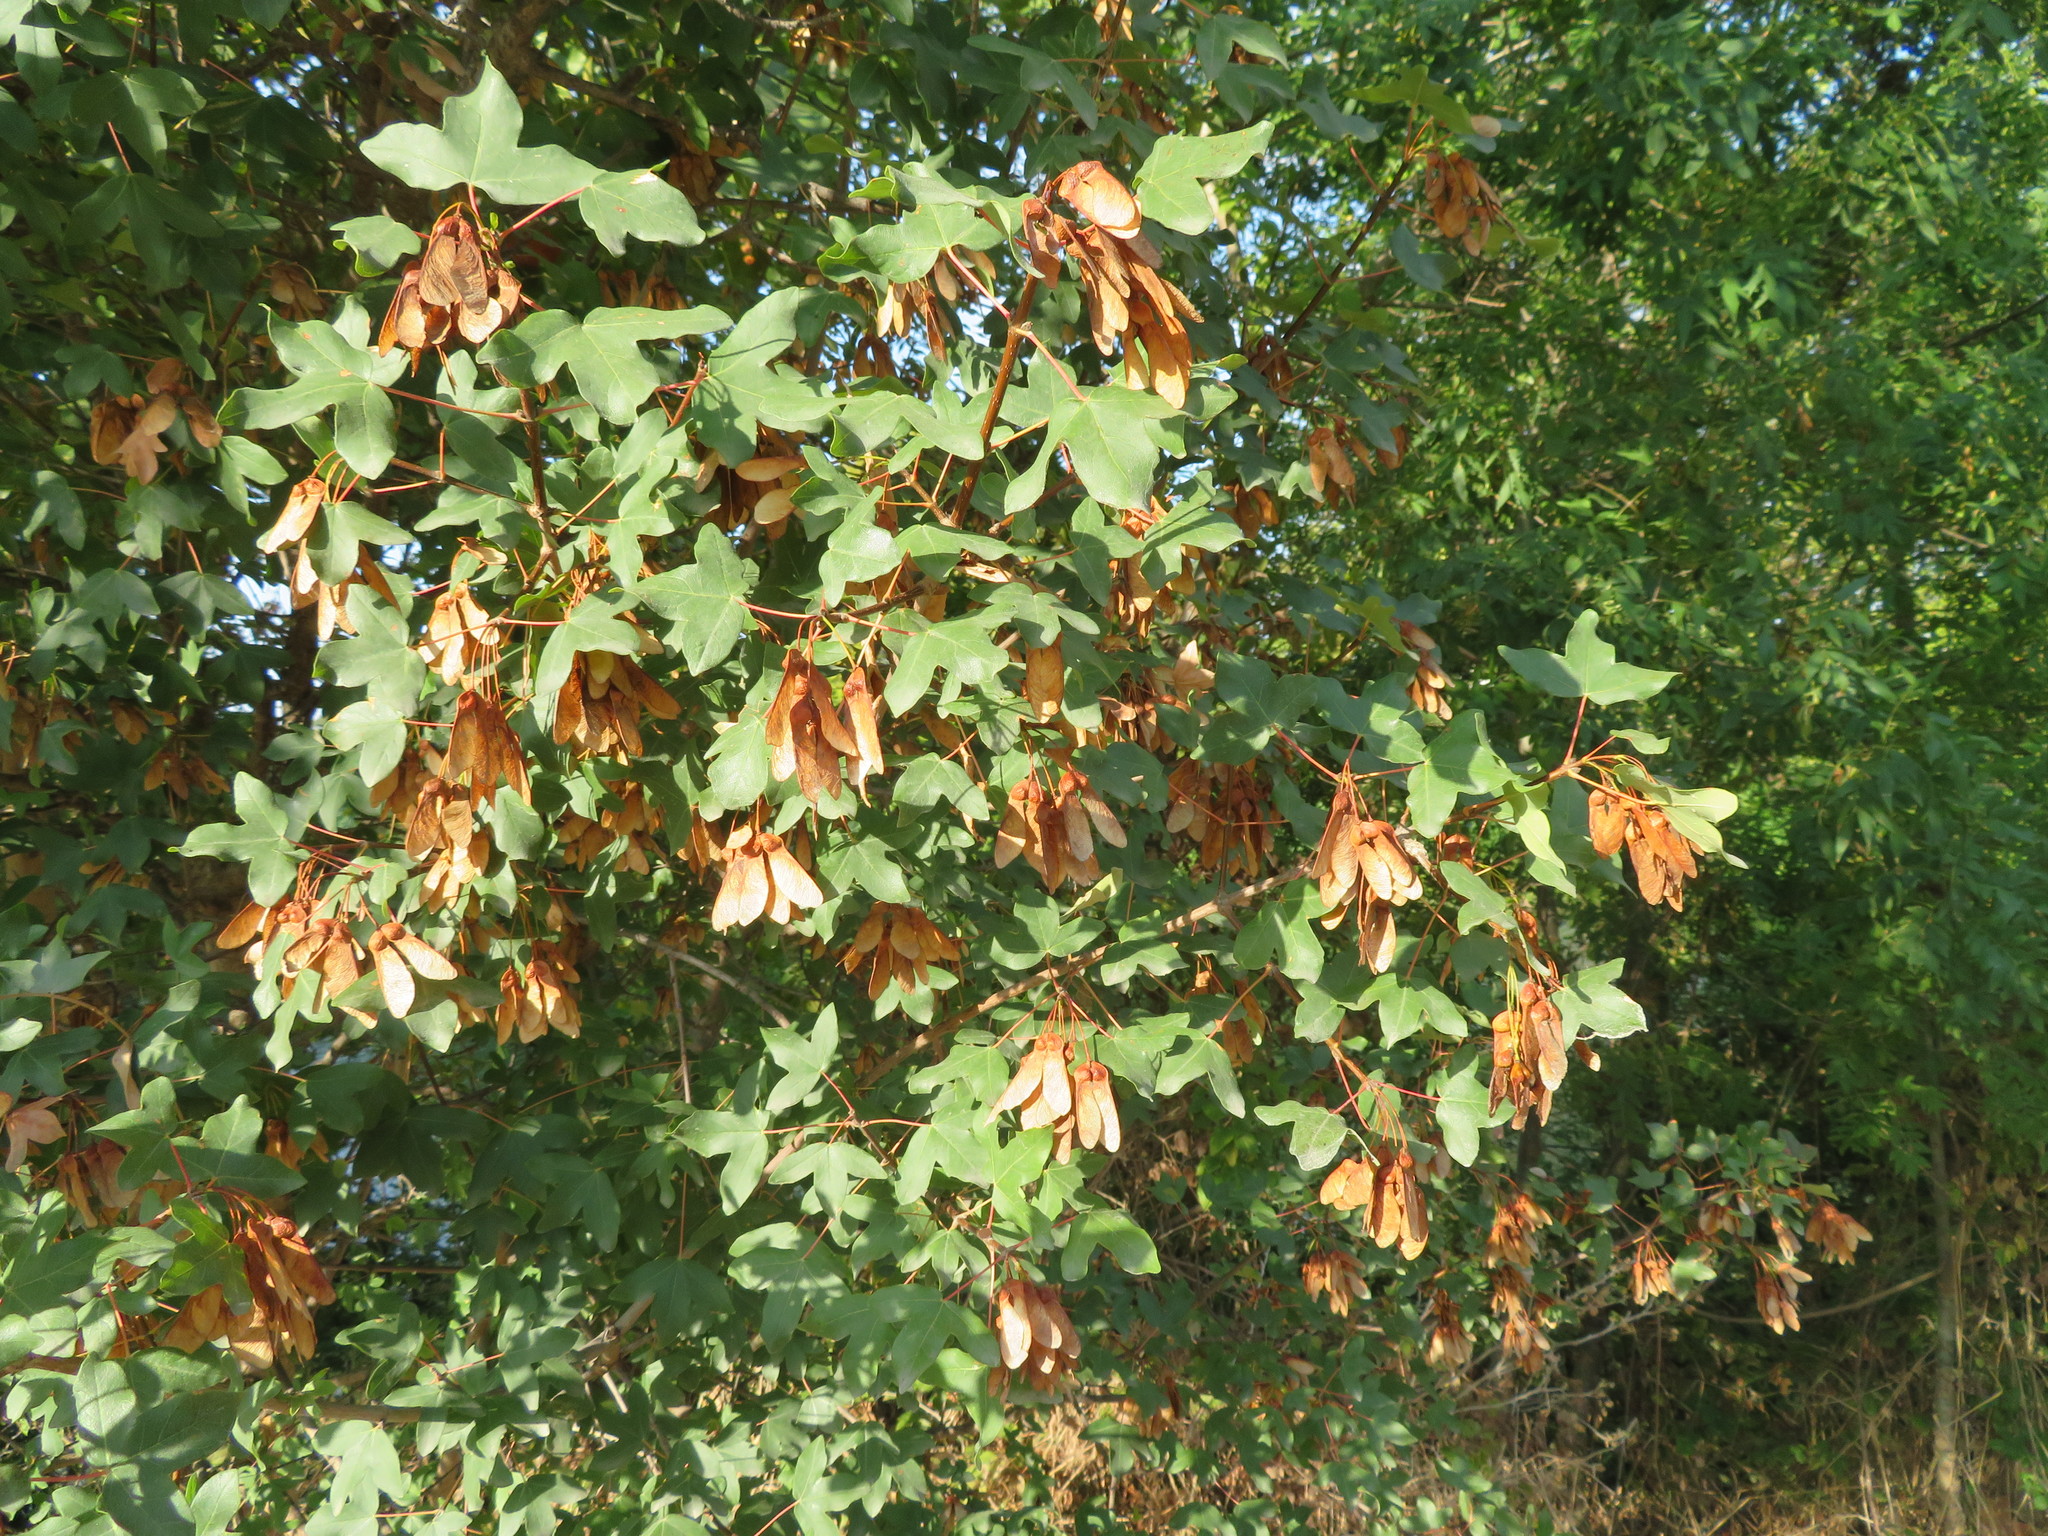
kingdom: Plantae
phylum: Tracheophyta
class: Magnoliopsida
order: Sapindales
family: Sapindaceae
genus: Acer
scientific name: Acer monspessulanum
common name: Montpellier maple
